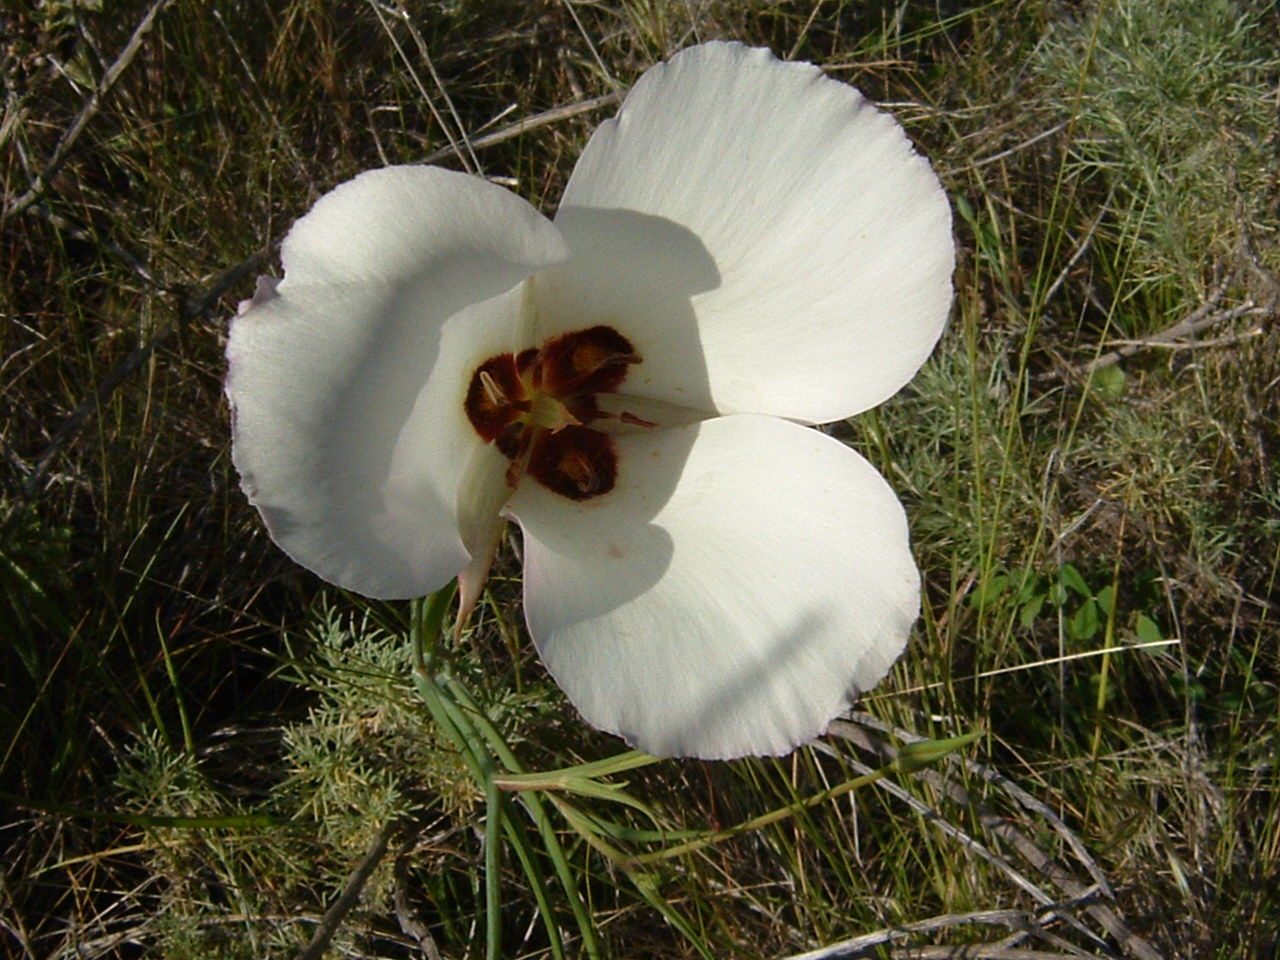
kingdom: Plantae
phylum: Tracheophyta
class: Liliopsida
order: Liliales
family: Liliaceae
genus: Calochortus
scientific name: Calochortus catalinae
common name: Catalina mariposa-lily
